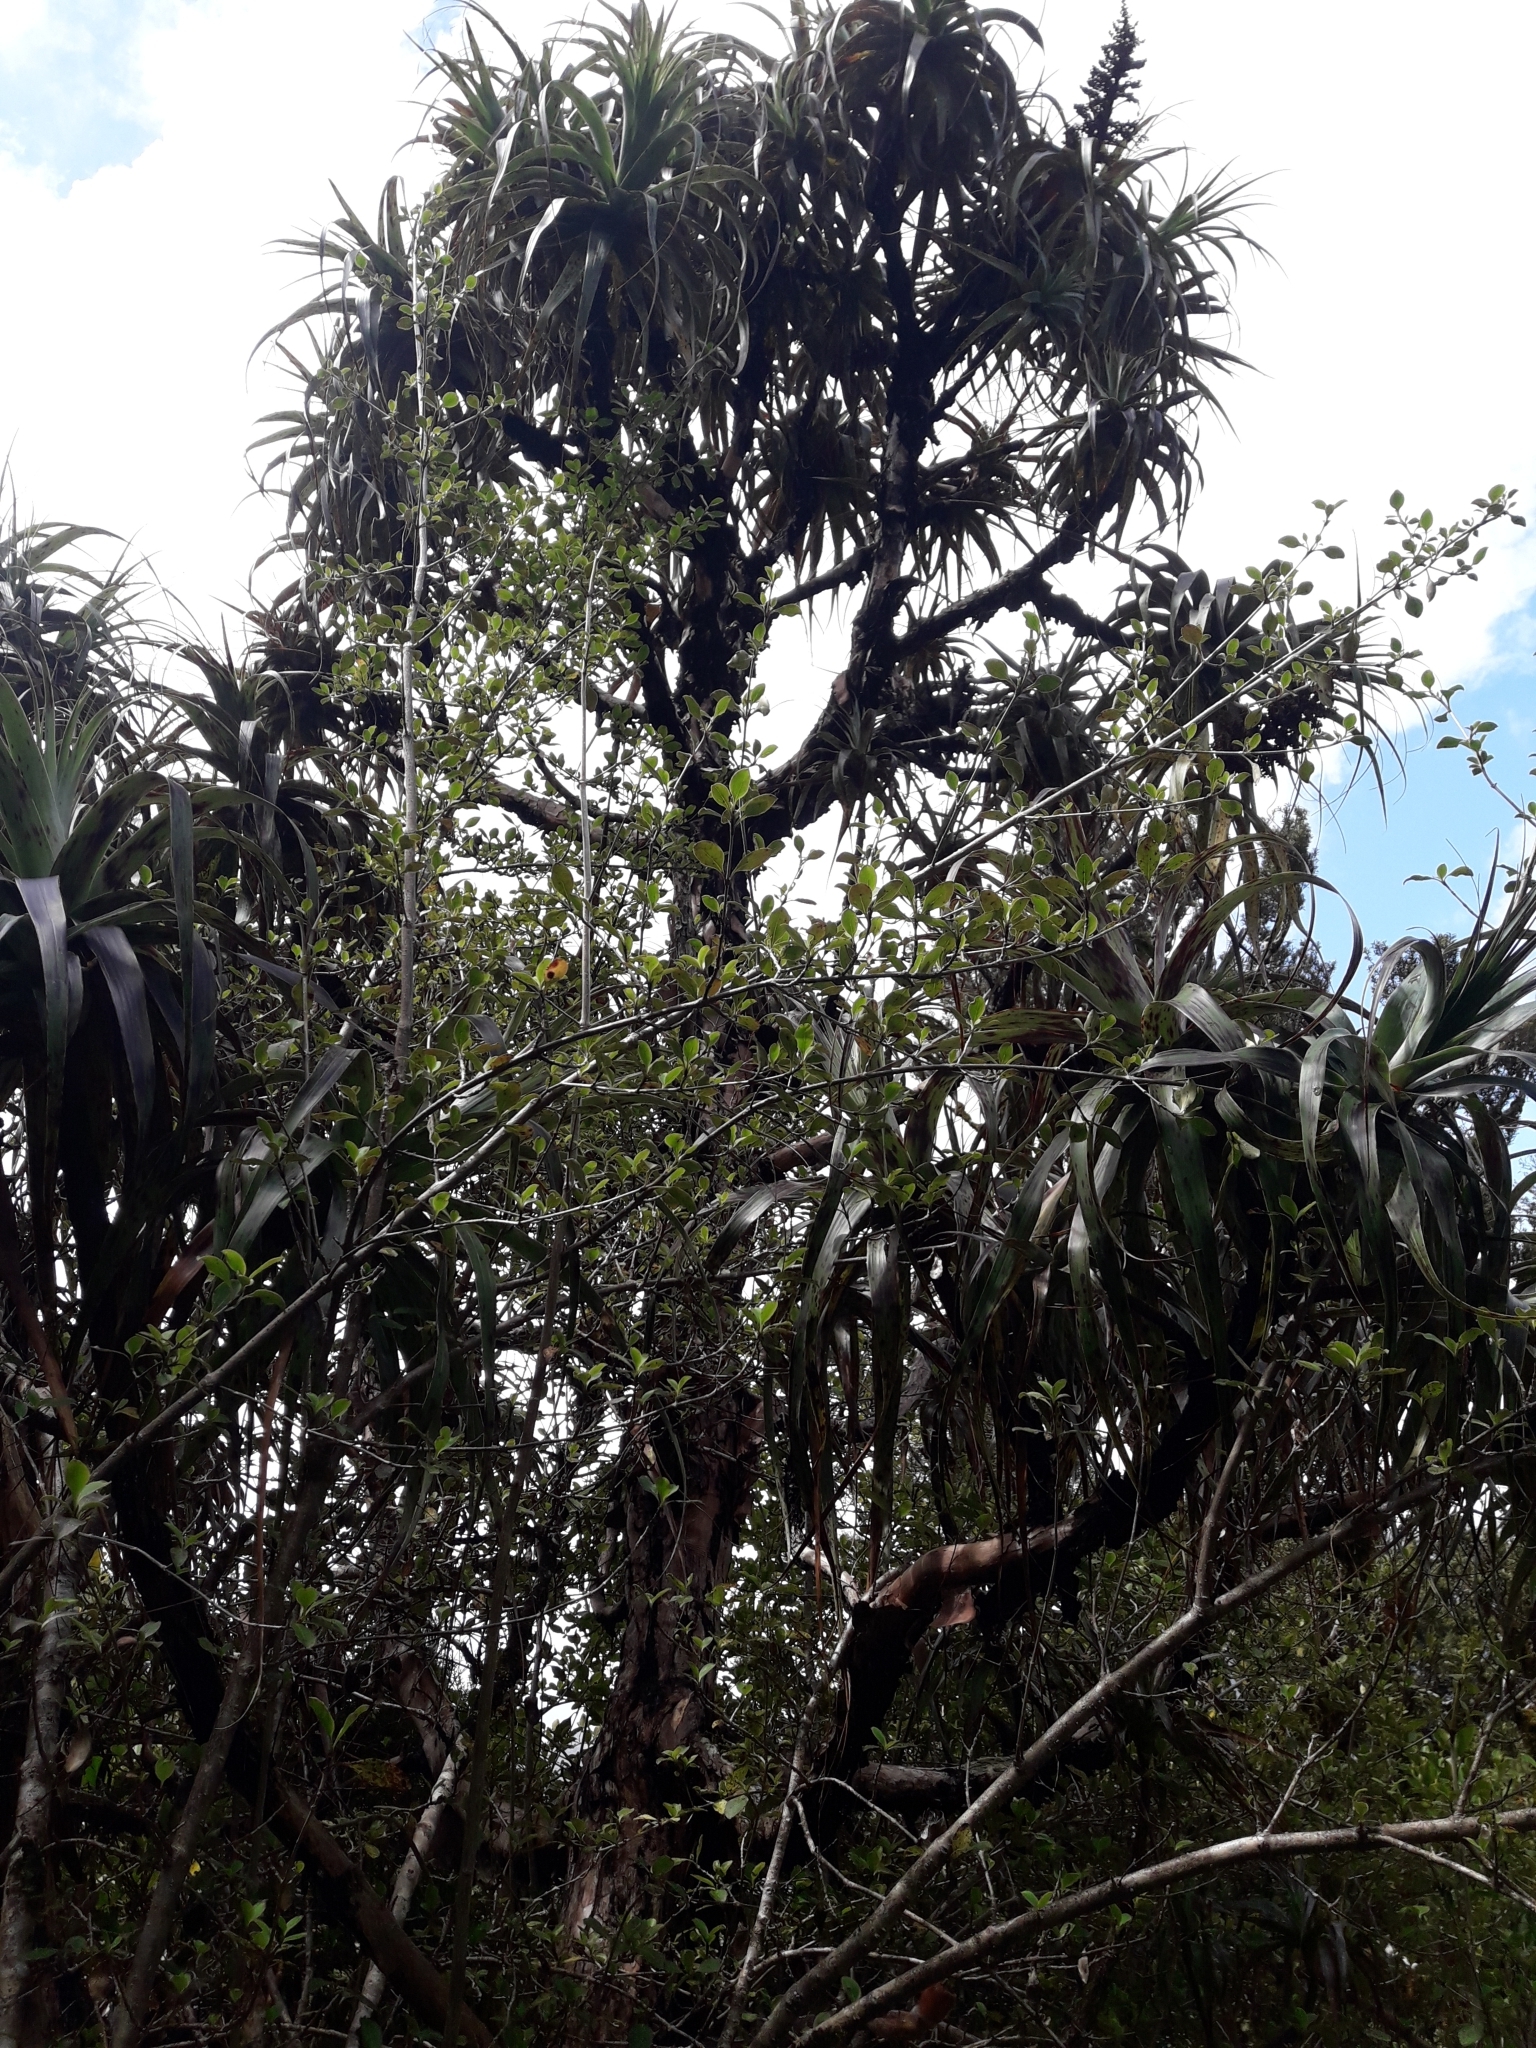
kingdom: Plantae
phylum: Tracheophyta
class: Magnoliopsida
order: Ericales
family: Ericaceae
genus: Dracophyllum
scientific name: Dracophyllum traversii
